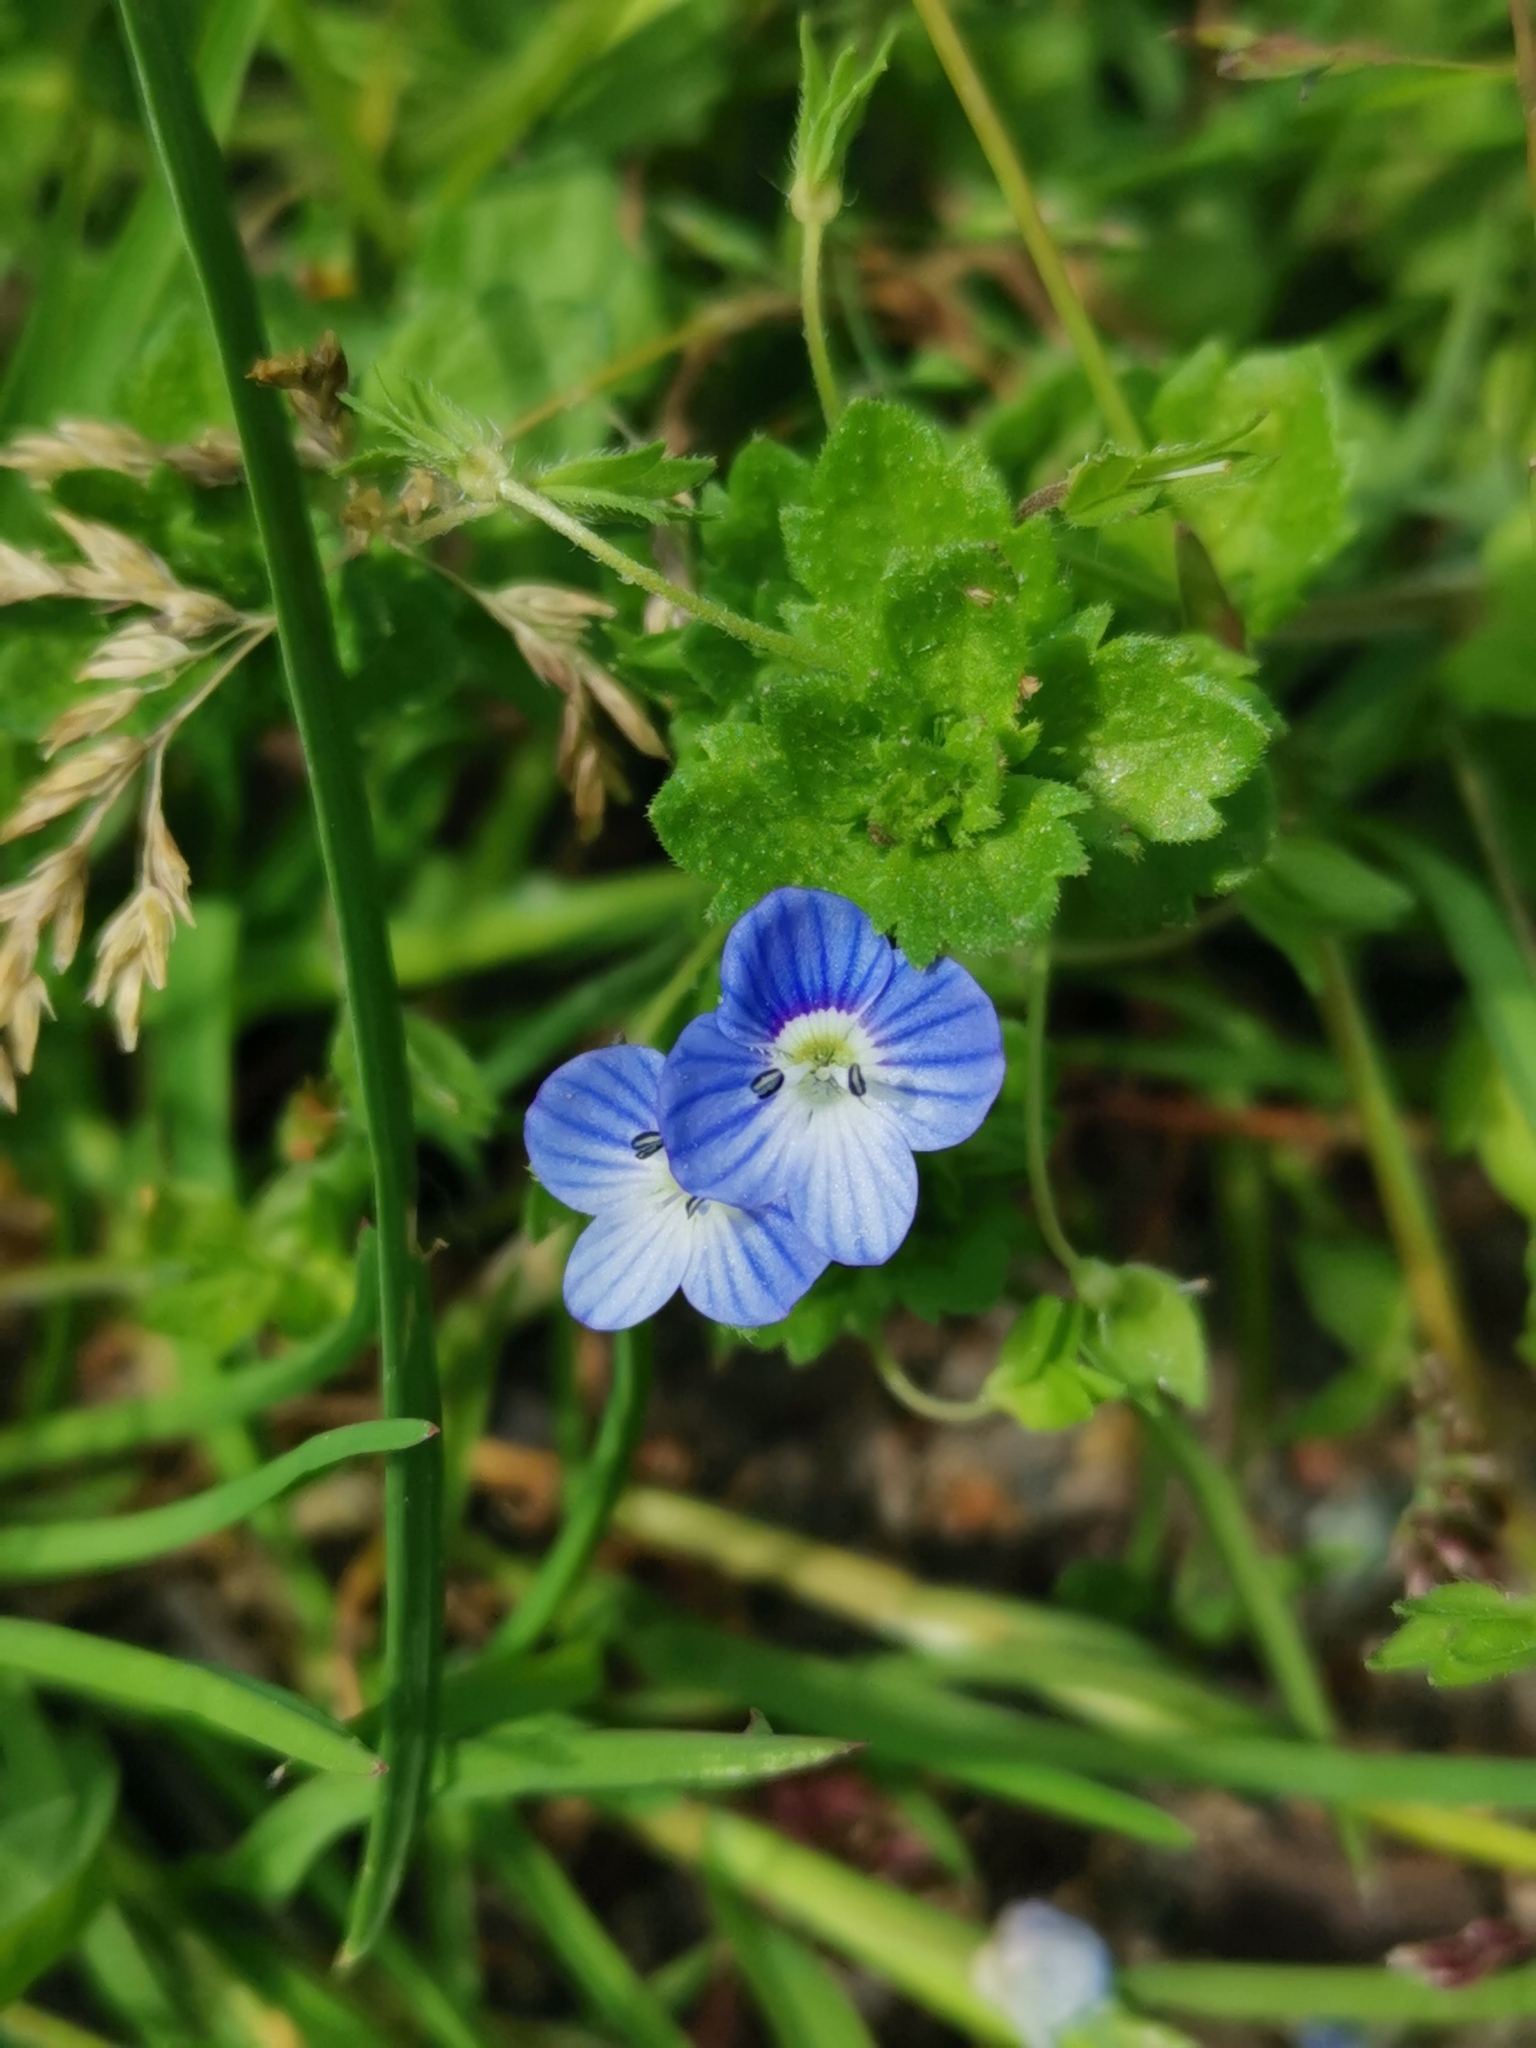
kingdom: Plantae
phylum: Tracheophyta
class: Magnoliopsida
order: Lamiales
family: Plantaginaceae
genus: Veronica
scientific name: Veronica persica
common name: Common field-speedwell
